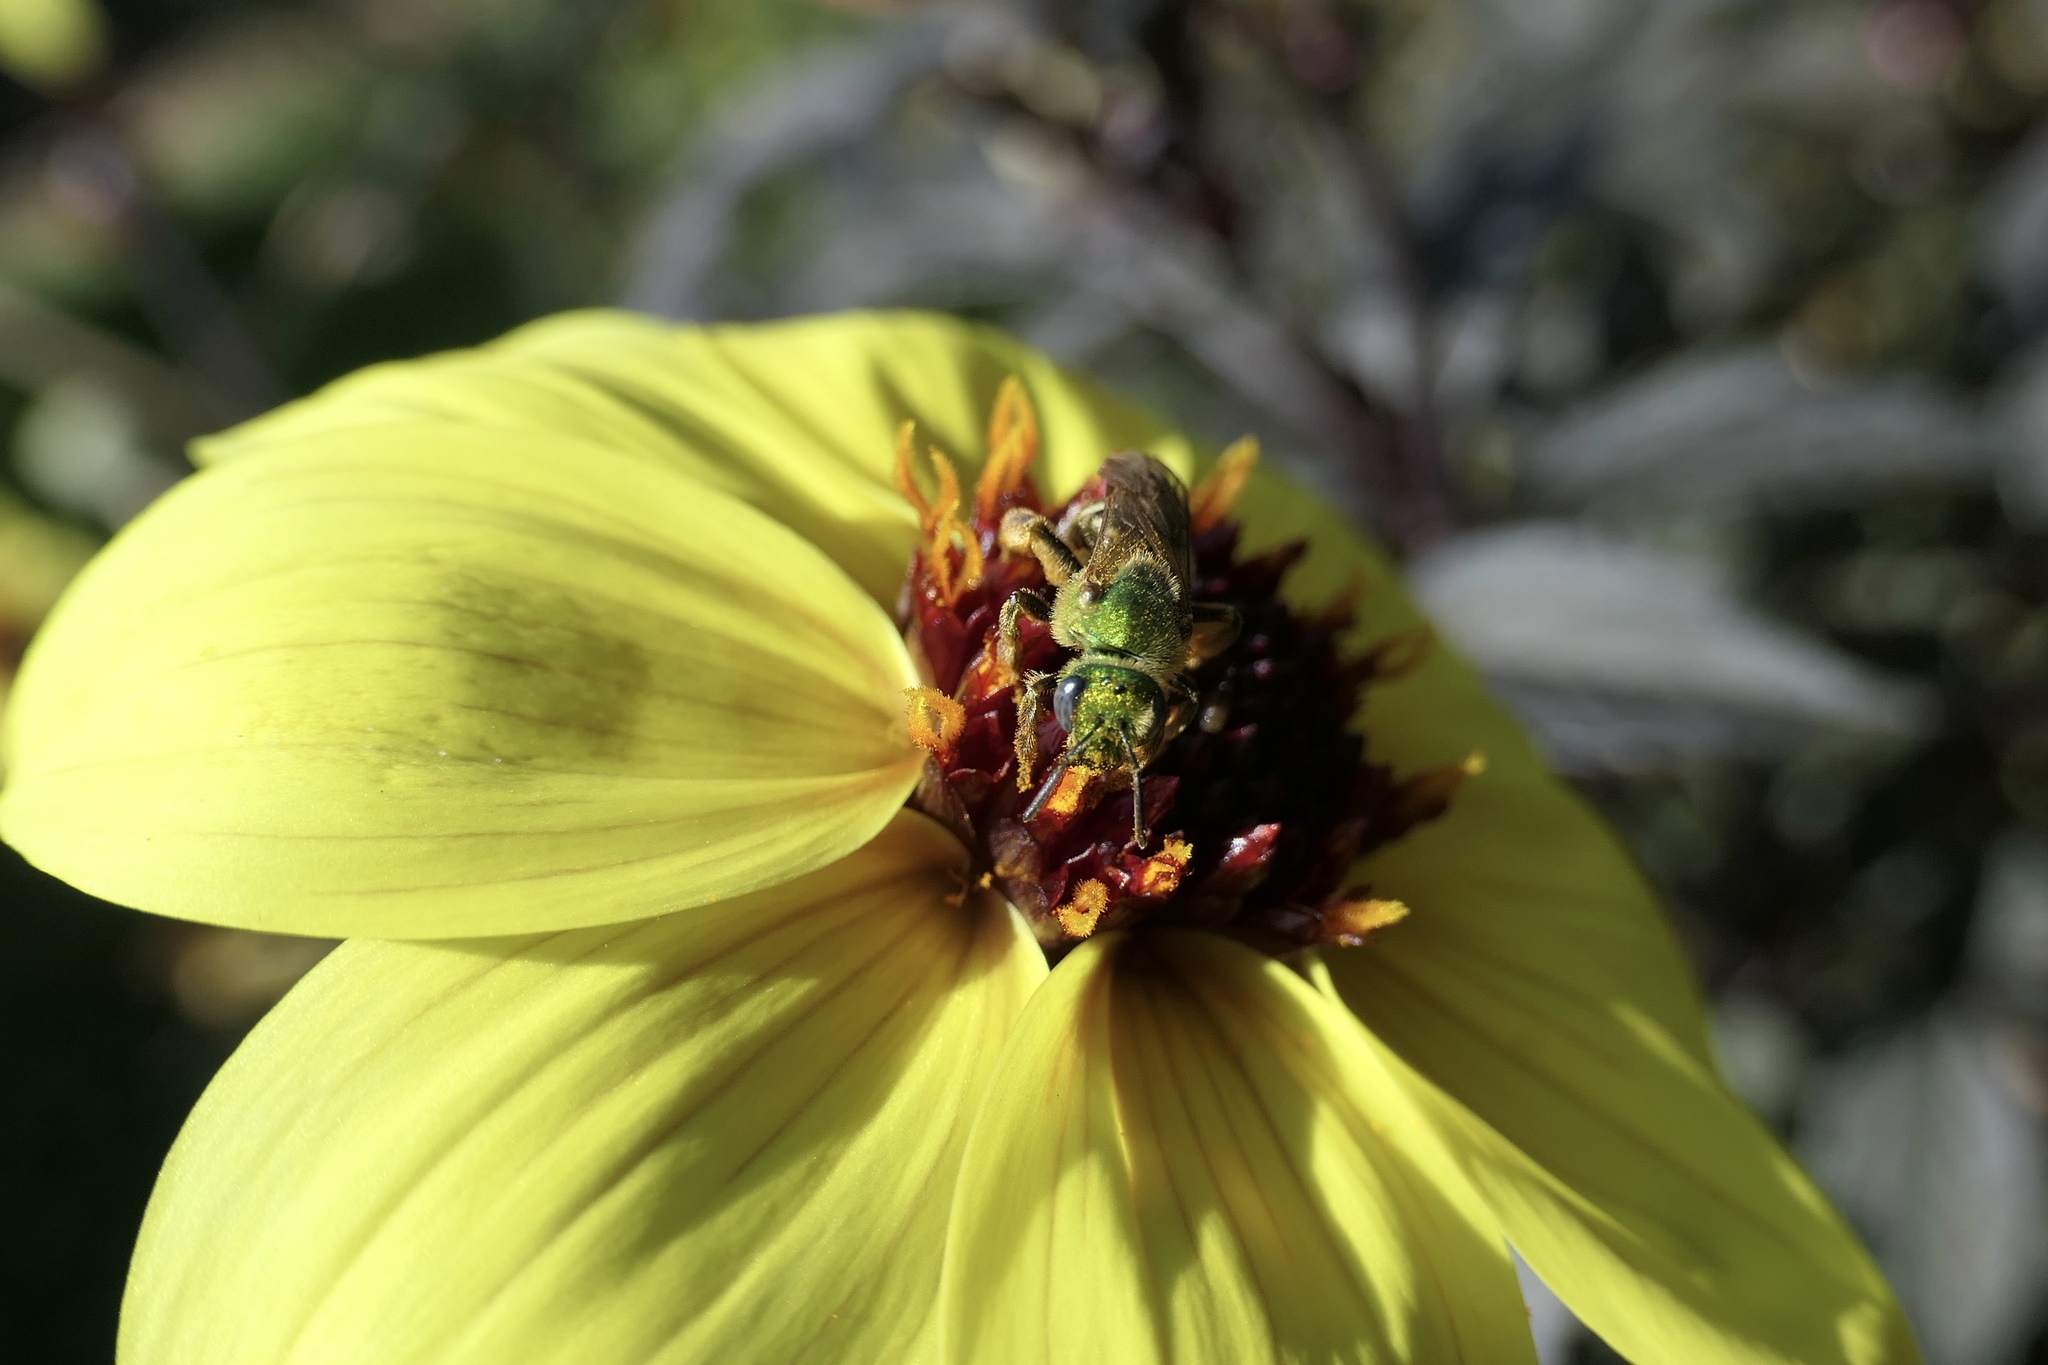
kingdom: Animalia
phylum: Arthropoda
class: Insecta
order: Hymenoptera
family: Halictidae
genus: Agapostemon
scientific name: Agapostemon virescens
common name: Bicolored striped sweat bee
